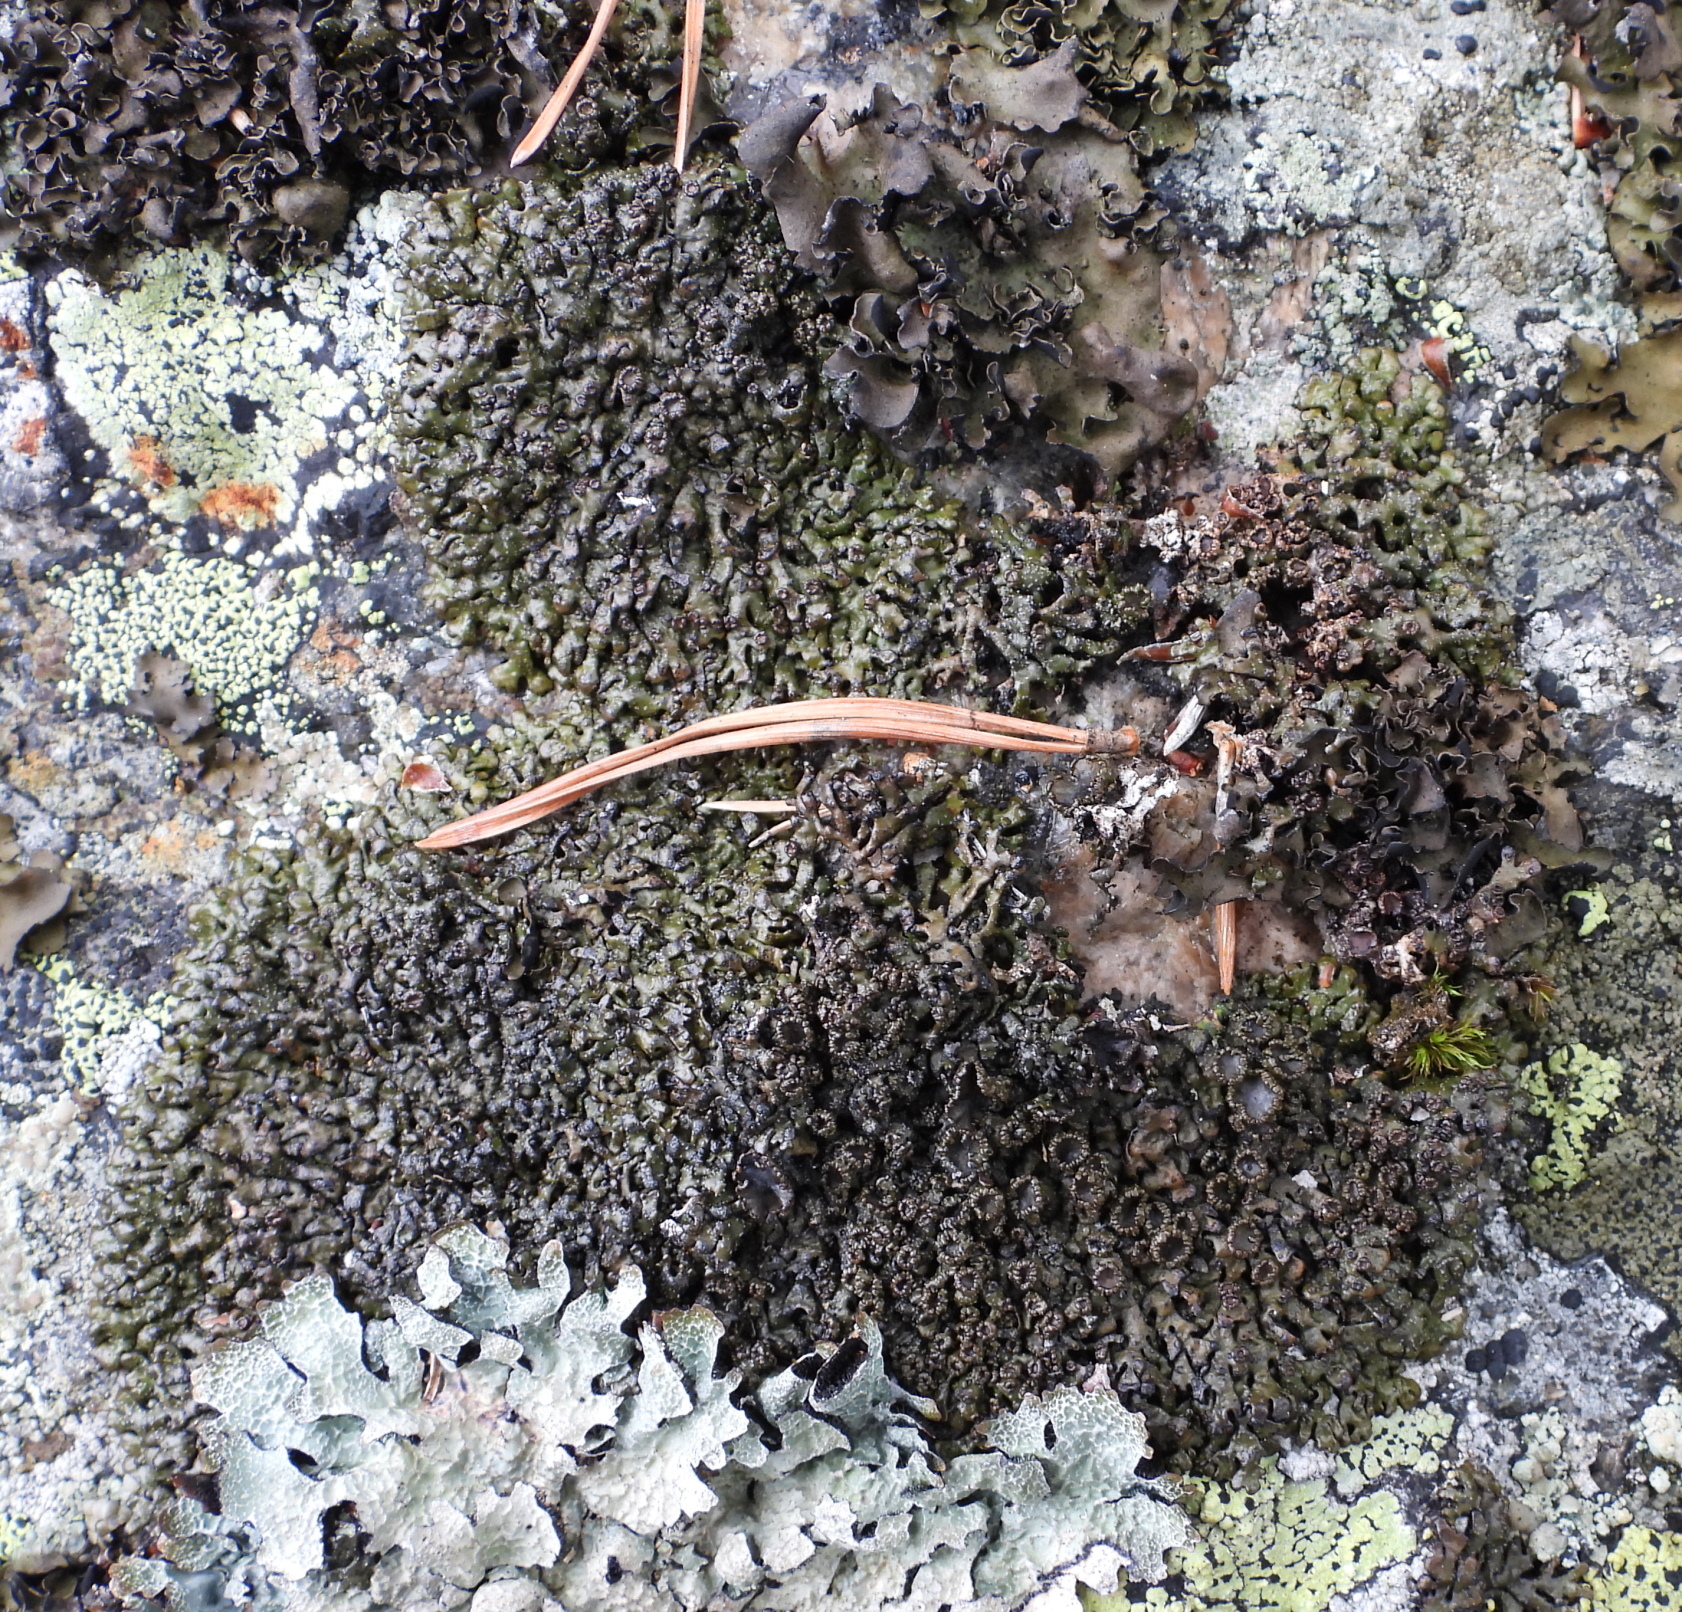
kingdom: Fungi
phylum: Ascomycota
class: Lecanoromycetes
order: Lecanorales
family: Parmeliaceae
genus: Melanelia
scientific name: Melanelia stygia
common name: Alpine camouflage lichen
